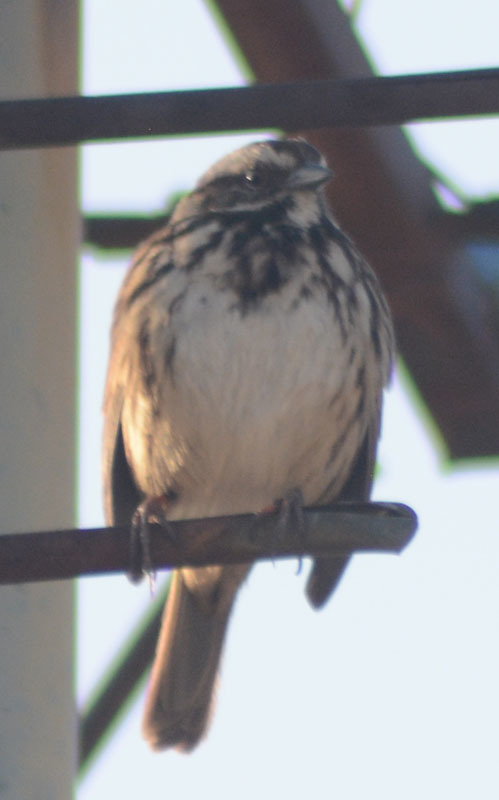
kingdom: Animalia
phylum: Chordata
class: Aves
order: Passeriformes
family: Passerellidae
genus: Melospiza
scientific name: Melospiza melodia
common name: Song sparrow
